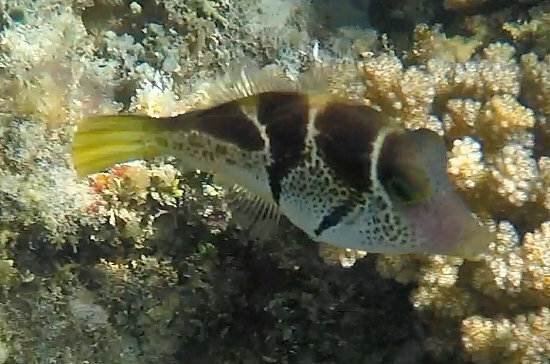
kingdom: Animalia
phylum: Chordata
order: Tetraodontiformes
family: Monacanthidae
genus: Paraluteres
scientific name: Paraluteres prionurus
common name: Black-saddled leatherjacket
